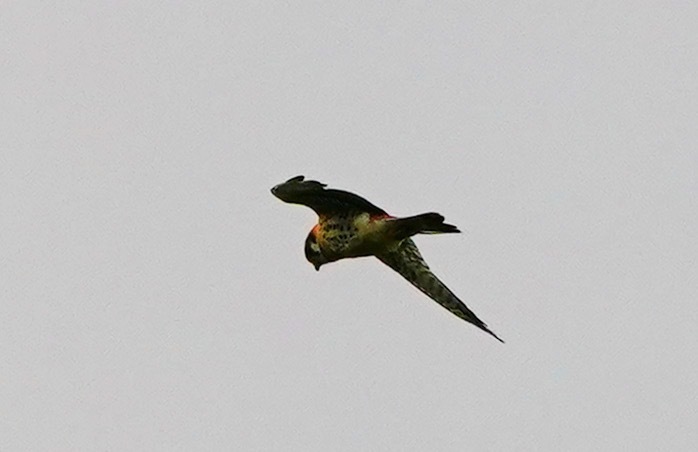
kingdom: Animalia
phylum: Chordata
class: Aves
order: Falconiformes
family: Falconidae
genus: Falco
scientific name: Falco sparverius
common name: American kestrel
